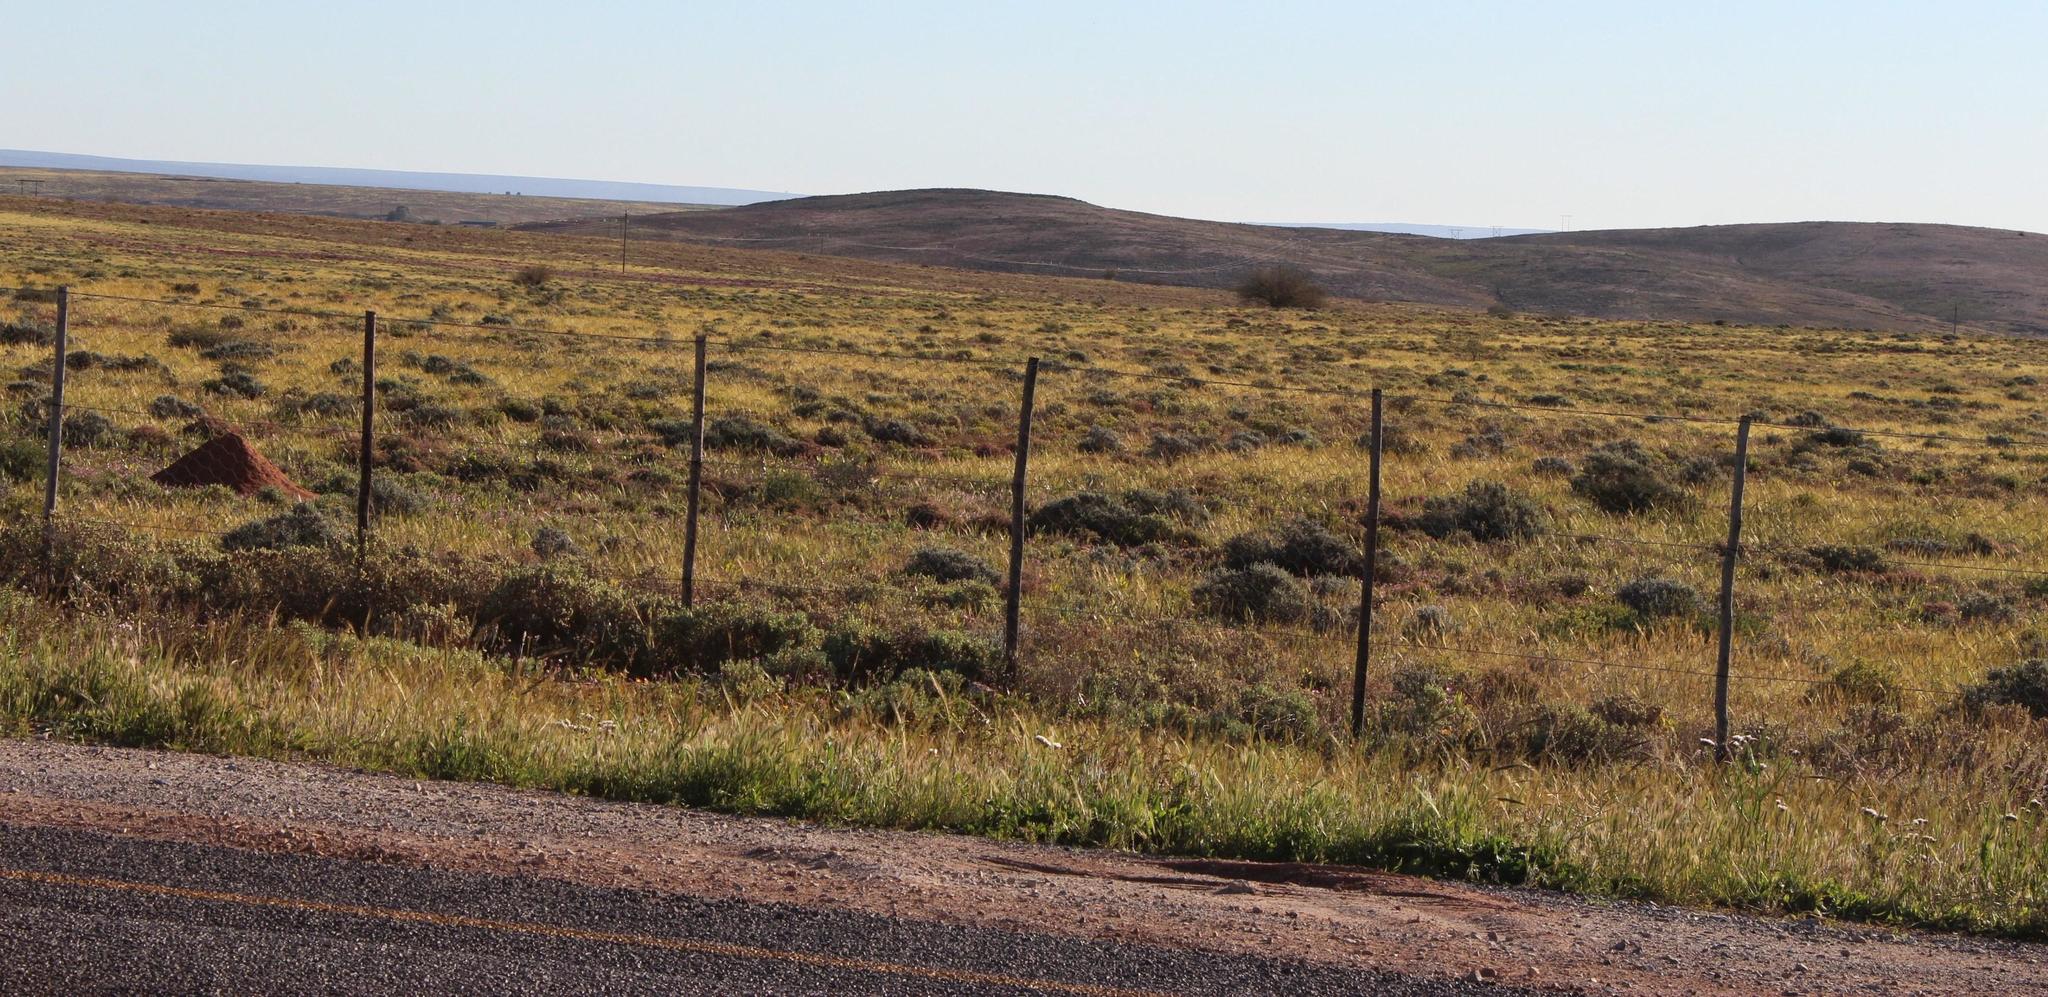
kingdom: Plantae
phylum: Tracheophyta
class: Liliopsida
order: Poales
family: Poaceae
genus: Stipellula
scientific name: Stipellula capensis
